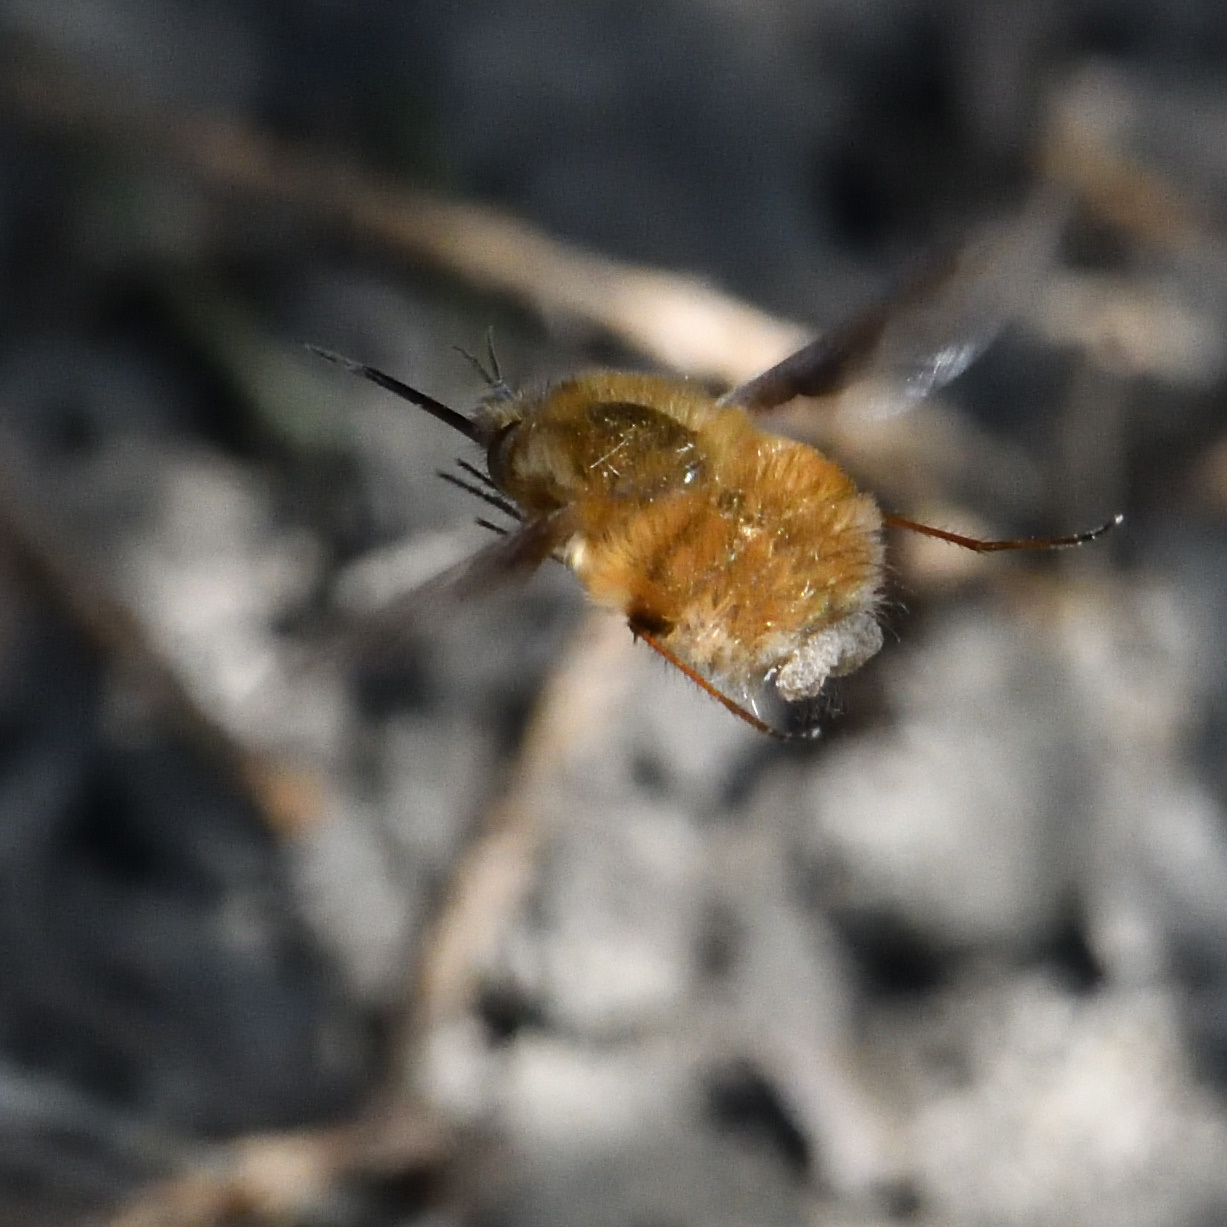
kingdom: Animalia
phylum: Arthropoda
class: Insecta
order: Diptera
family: Bombyliidae
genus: Bombylius
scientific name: Bombylius major
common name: Bee fly
